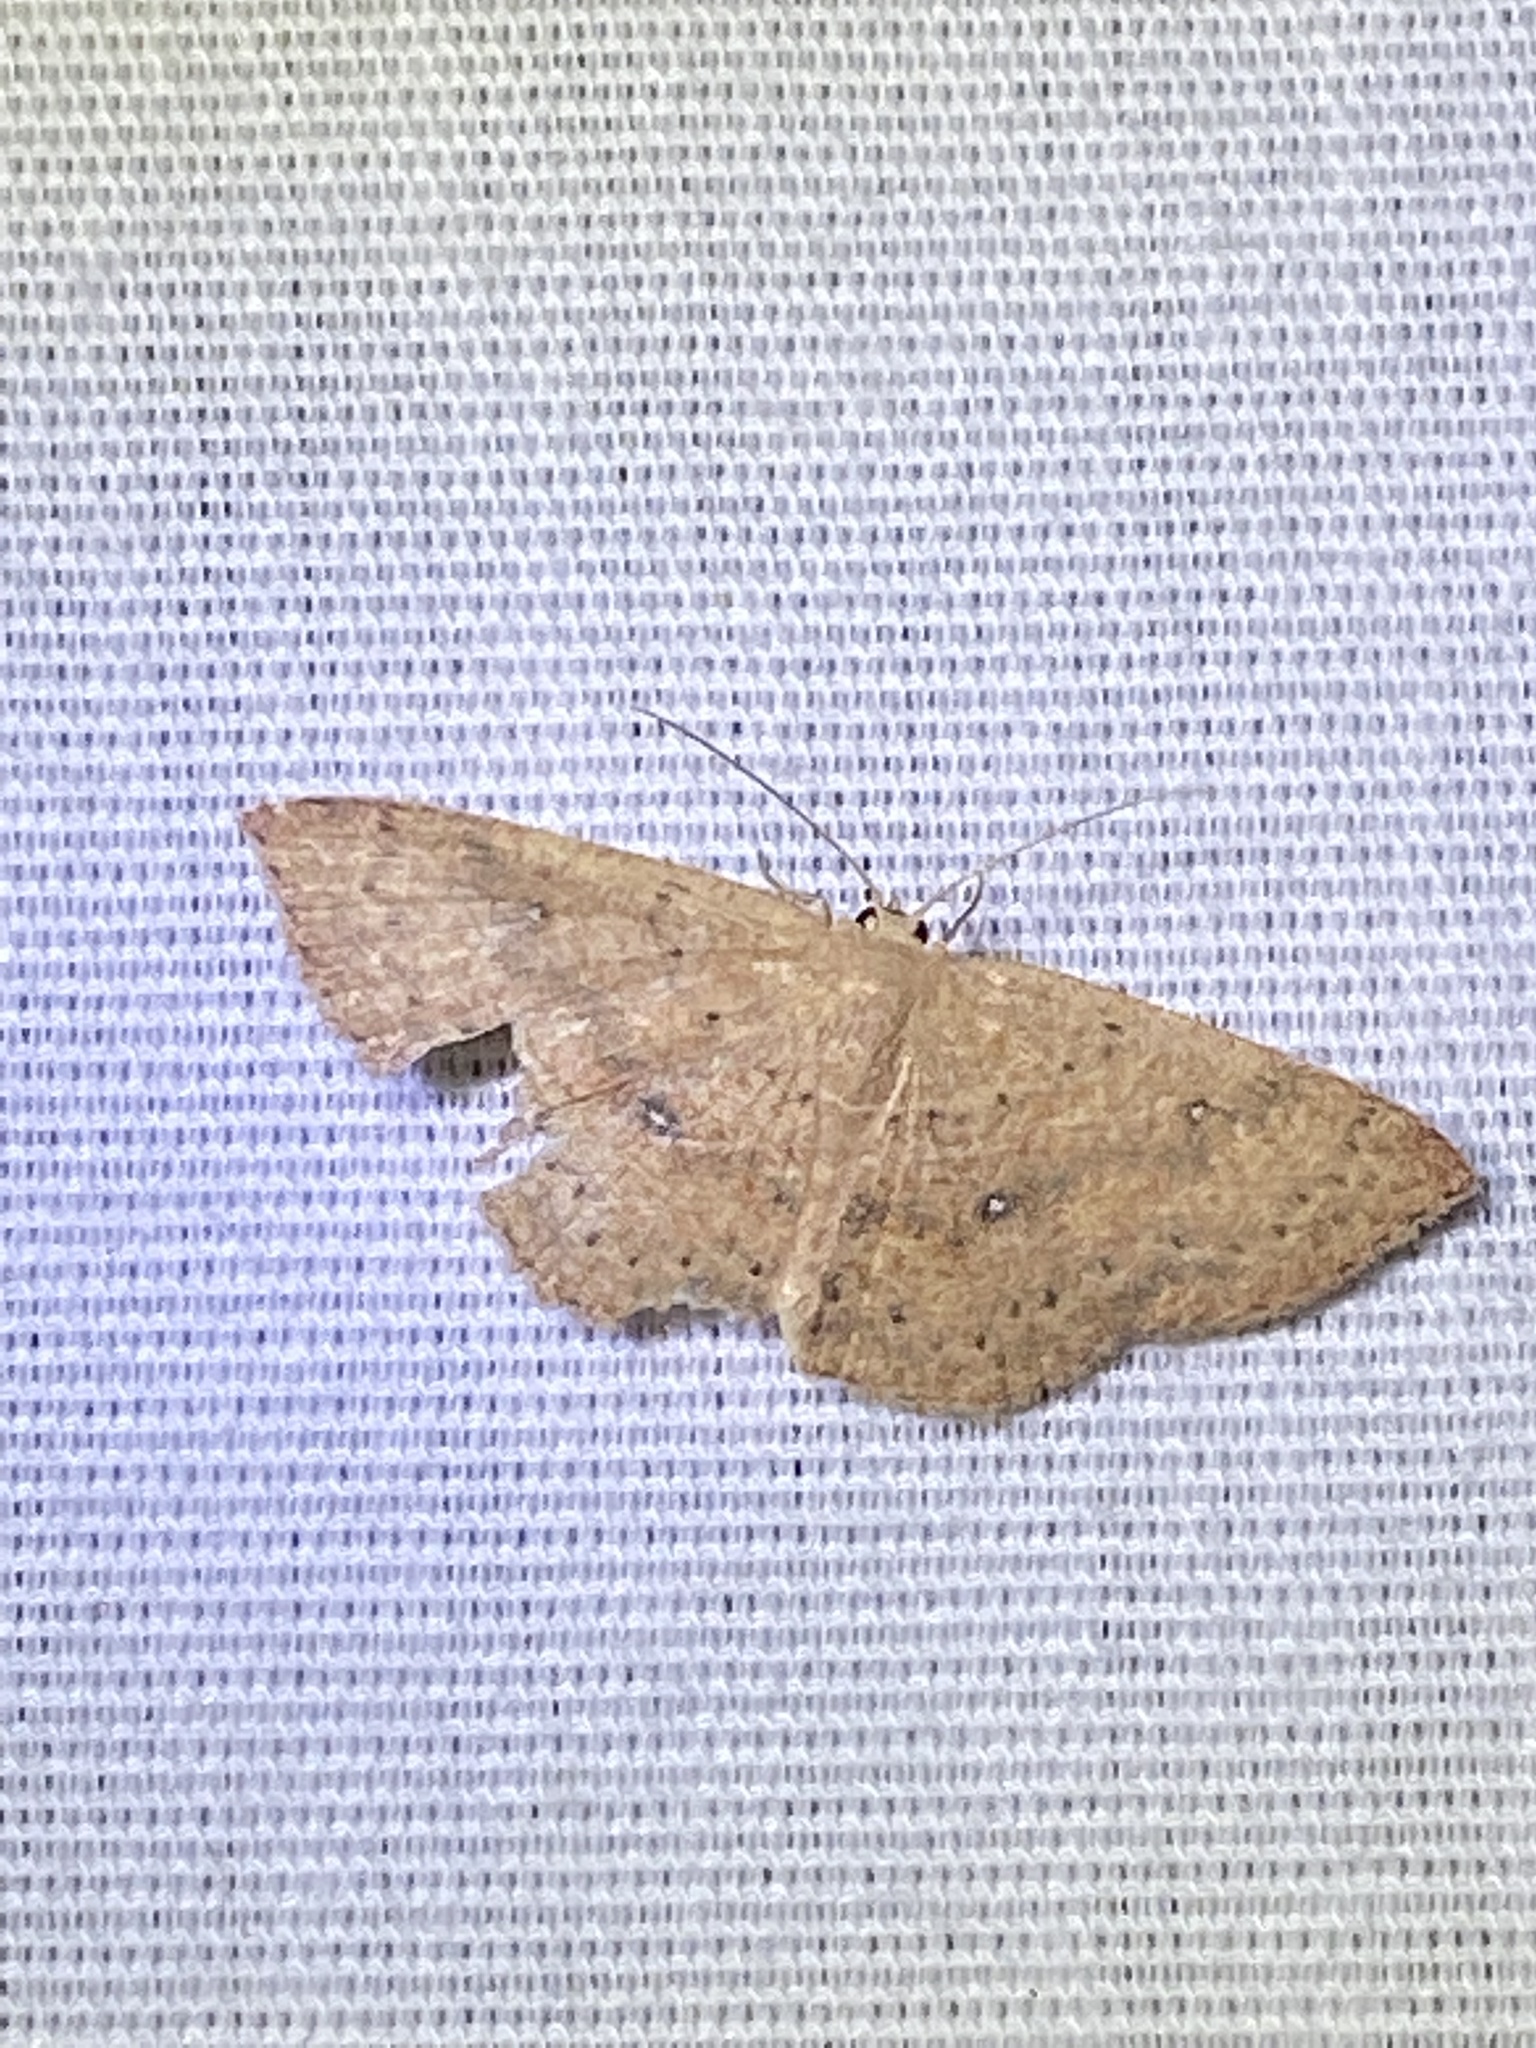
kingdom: Animalia
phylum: Arthropoda
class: Insecta
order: Lepidoptera
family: Geometridae
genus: Cyclophora
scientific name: Cyclophora packardi
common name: Packard's wave
